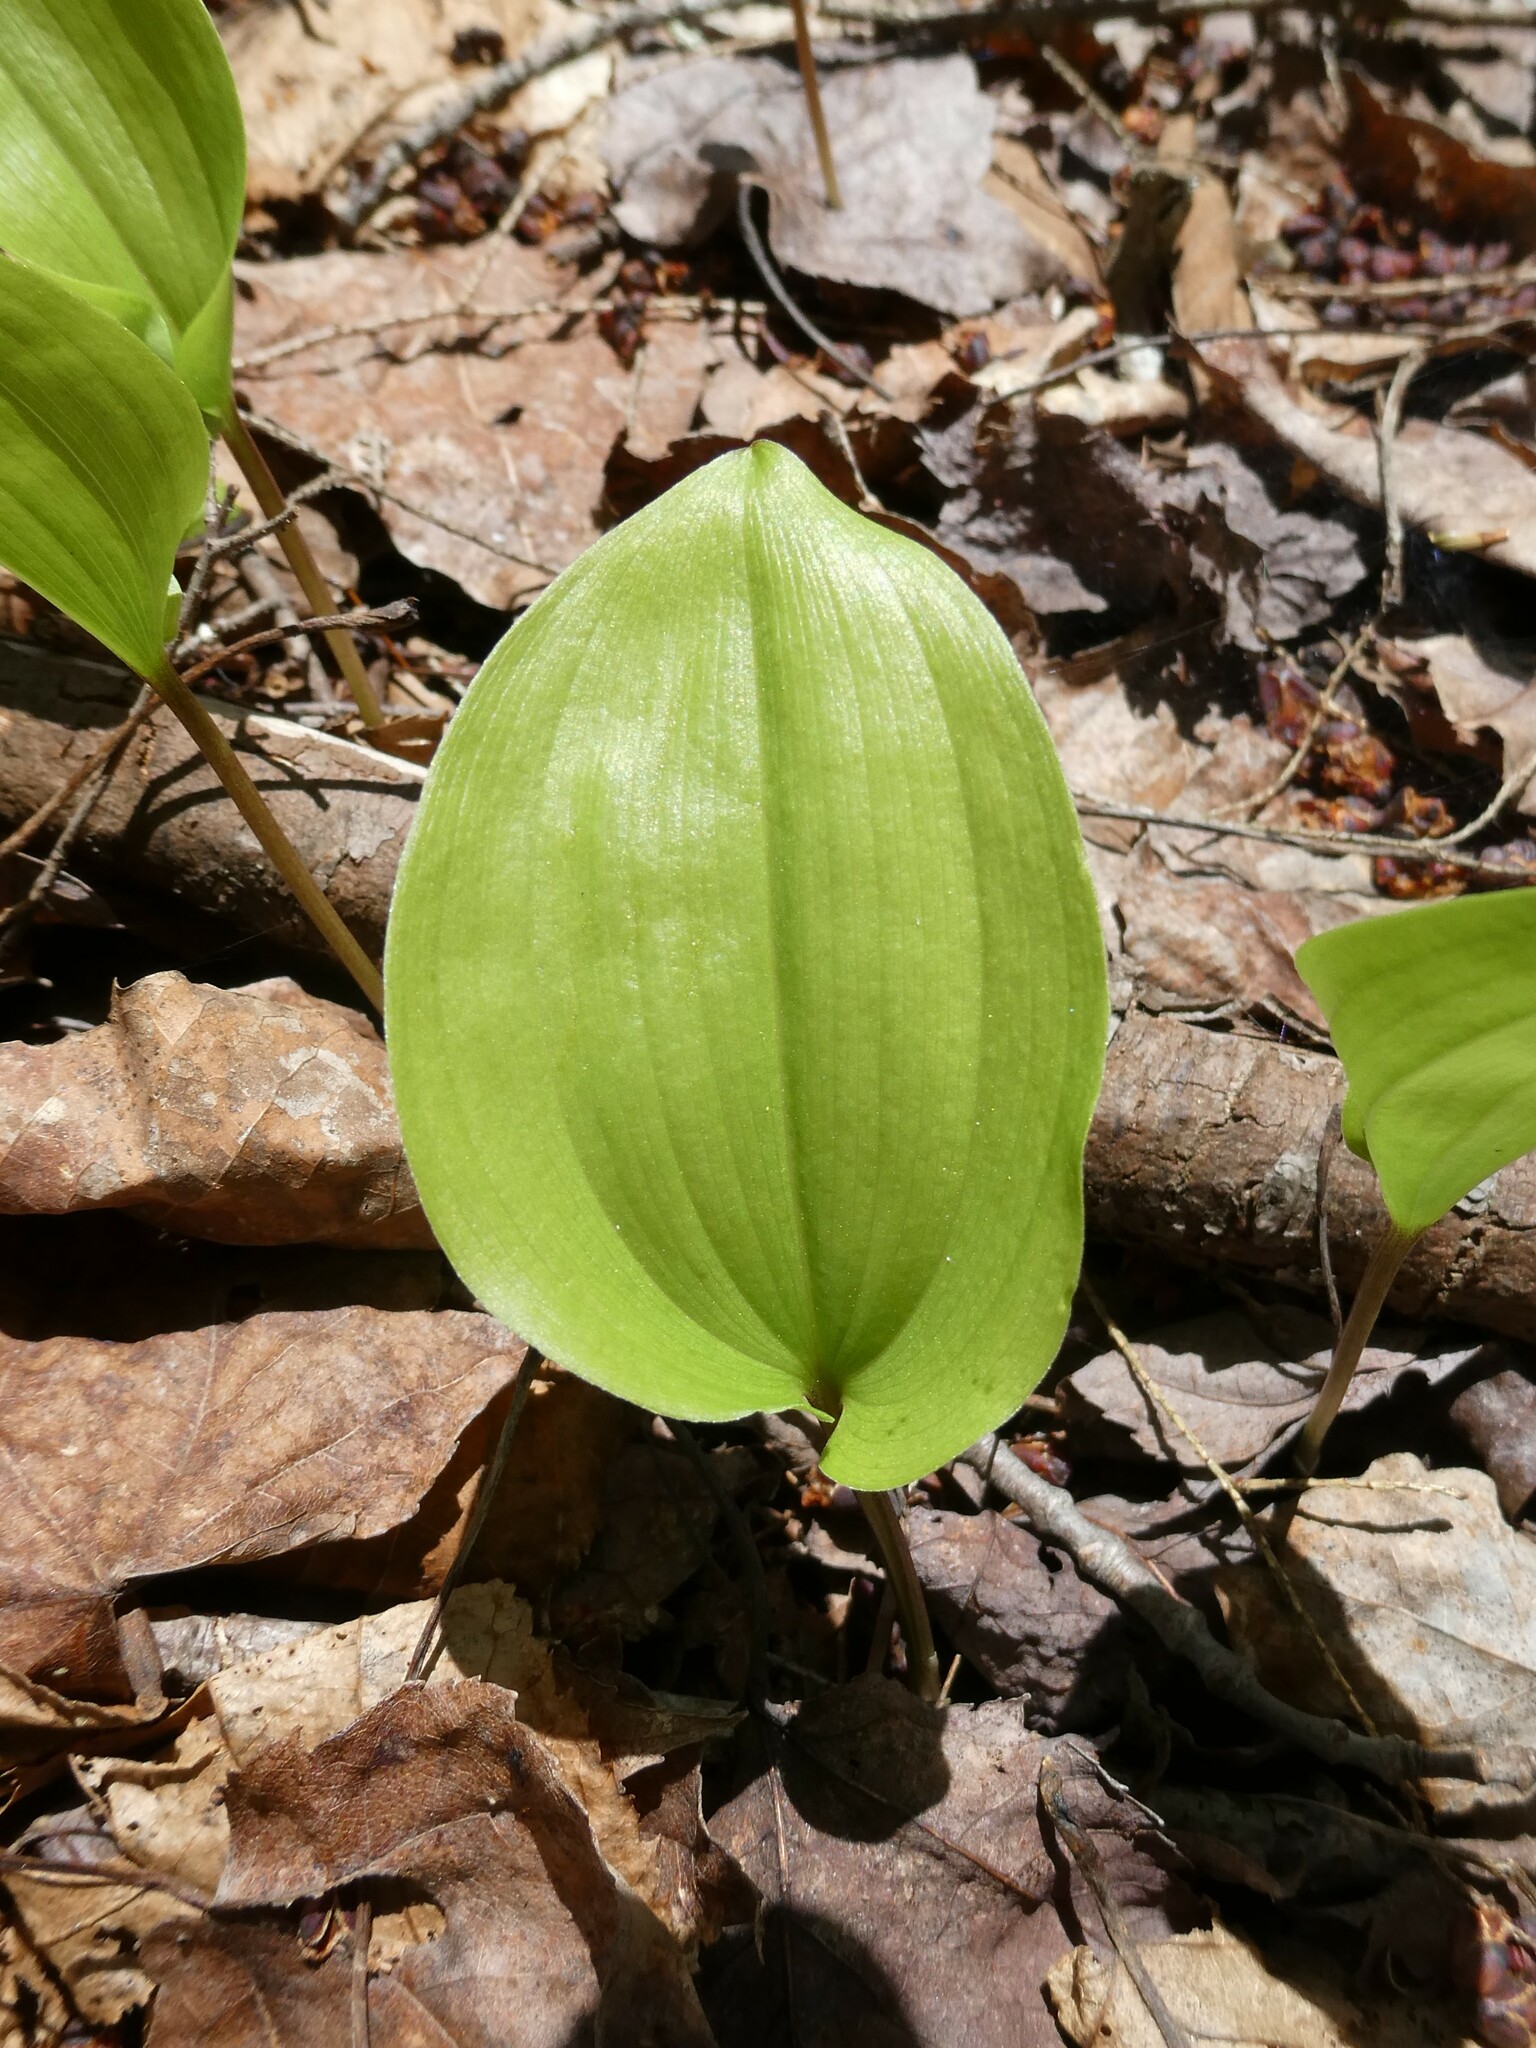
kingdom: Plantae
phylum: Tracheophyta
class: Liliopsida
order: Asparagales
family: Asparagaceae
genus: Maianthemum
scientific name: Maianthemum canadense
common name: False lily-of-the-valley
